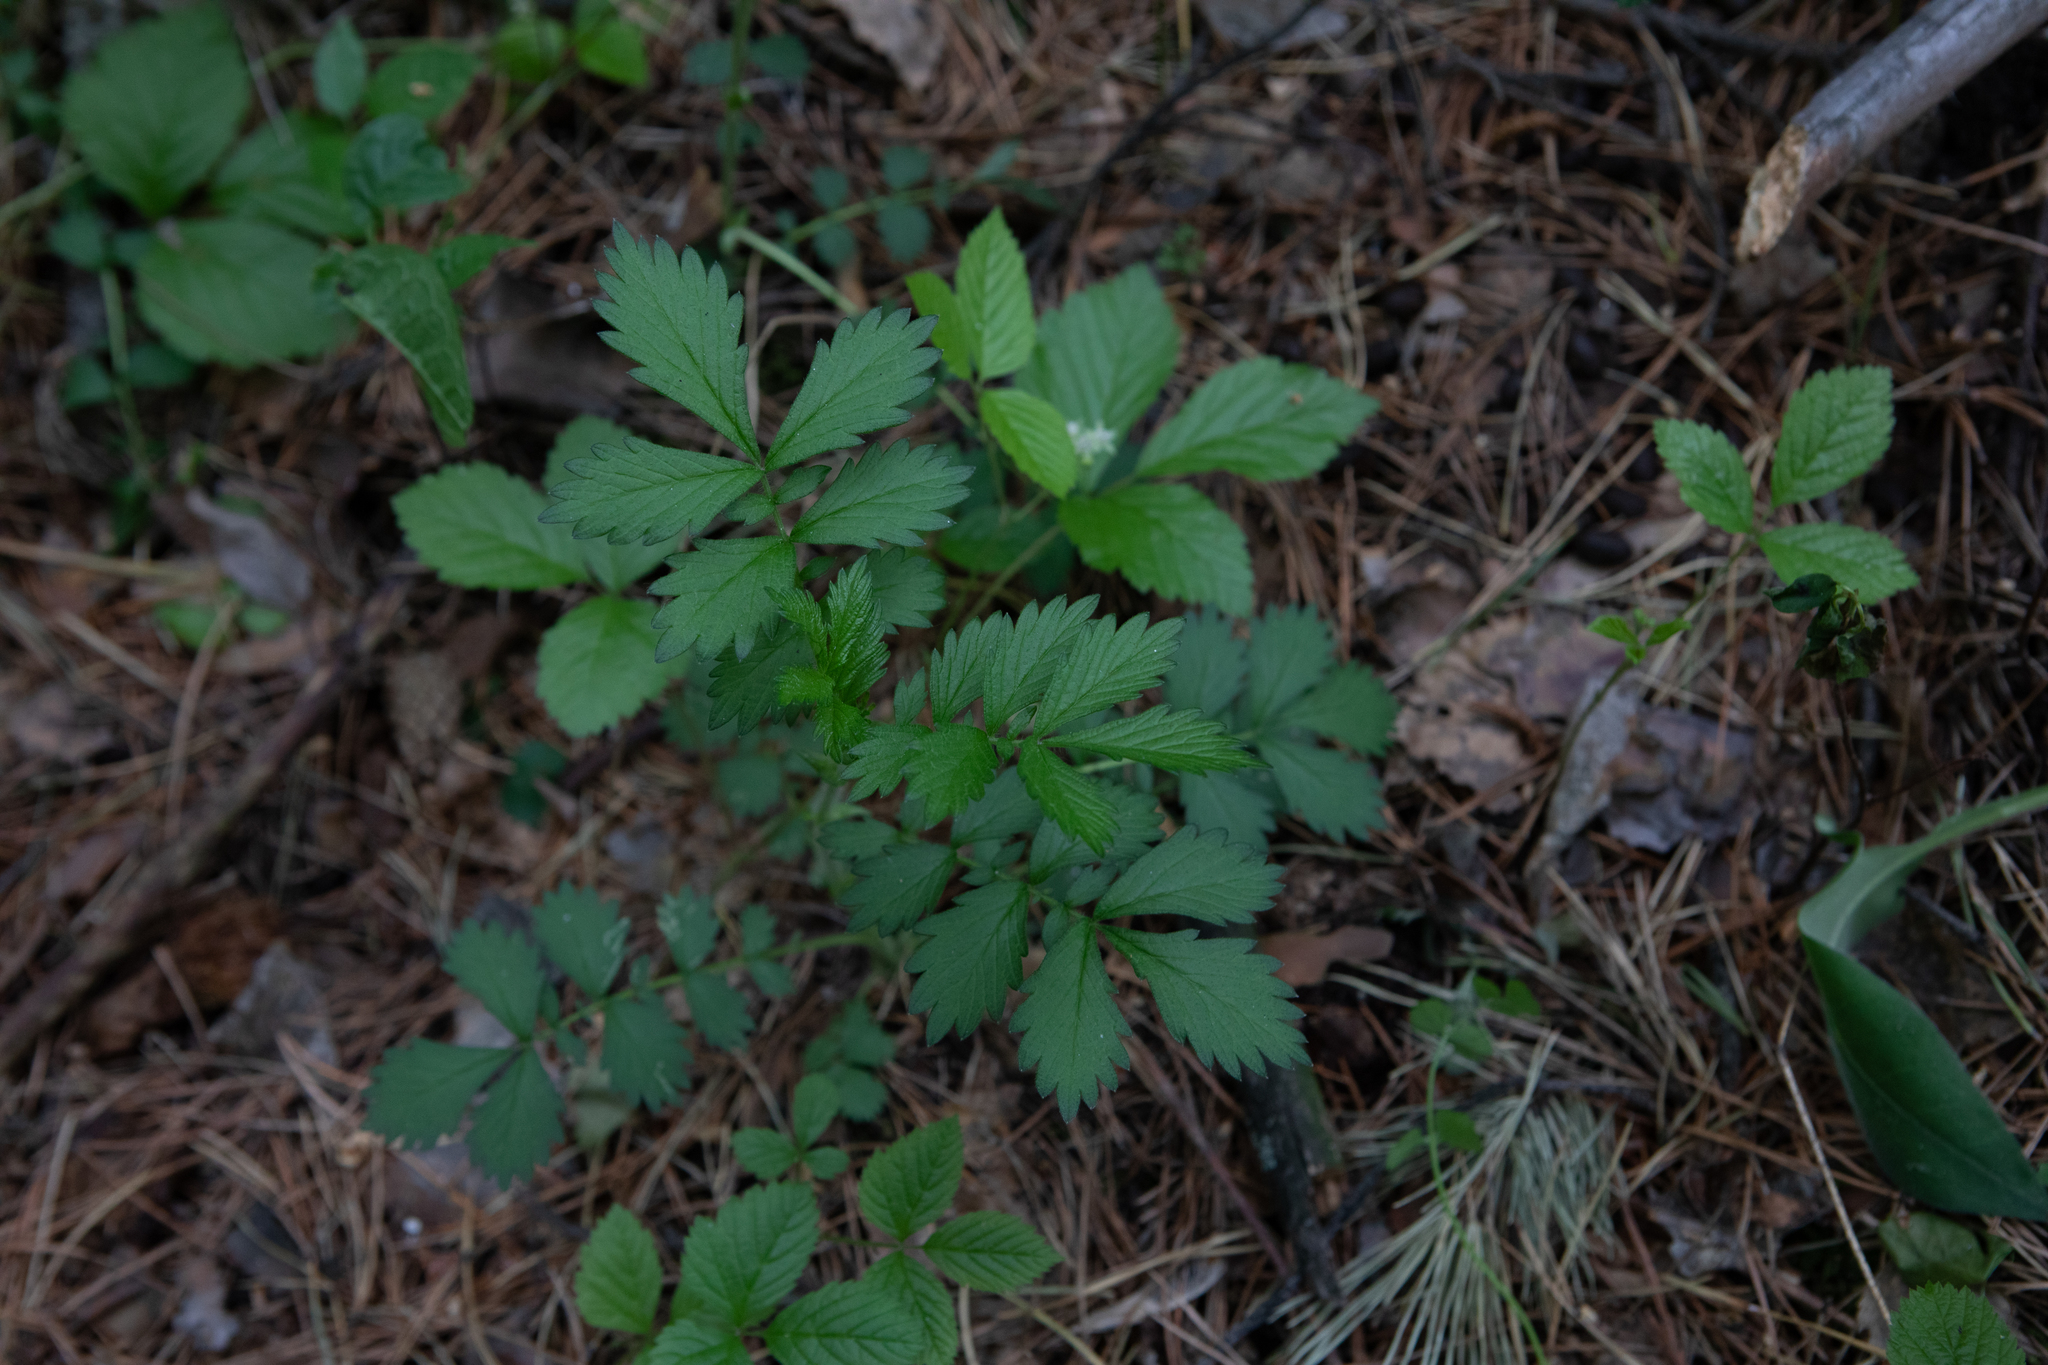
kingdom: Plantae
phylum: Tracheophyta
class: Magnoliopsida
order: Rosales
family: Rosaceae
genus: Agrimonia
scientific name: Agrimonia pilosa
